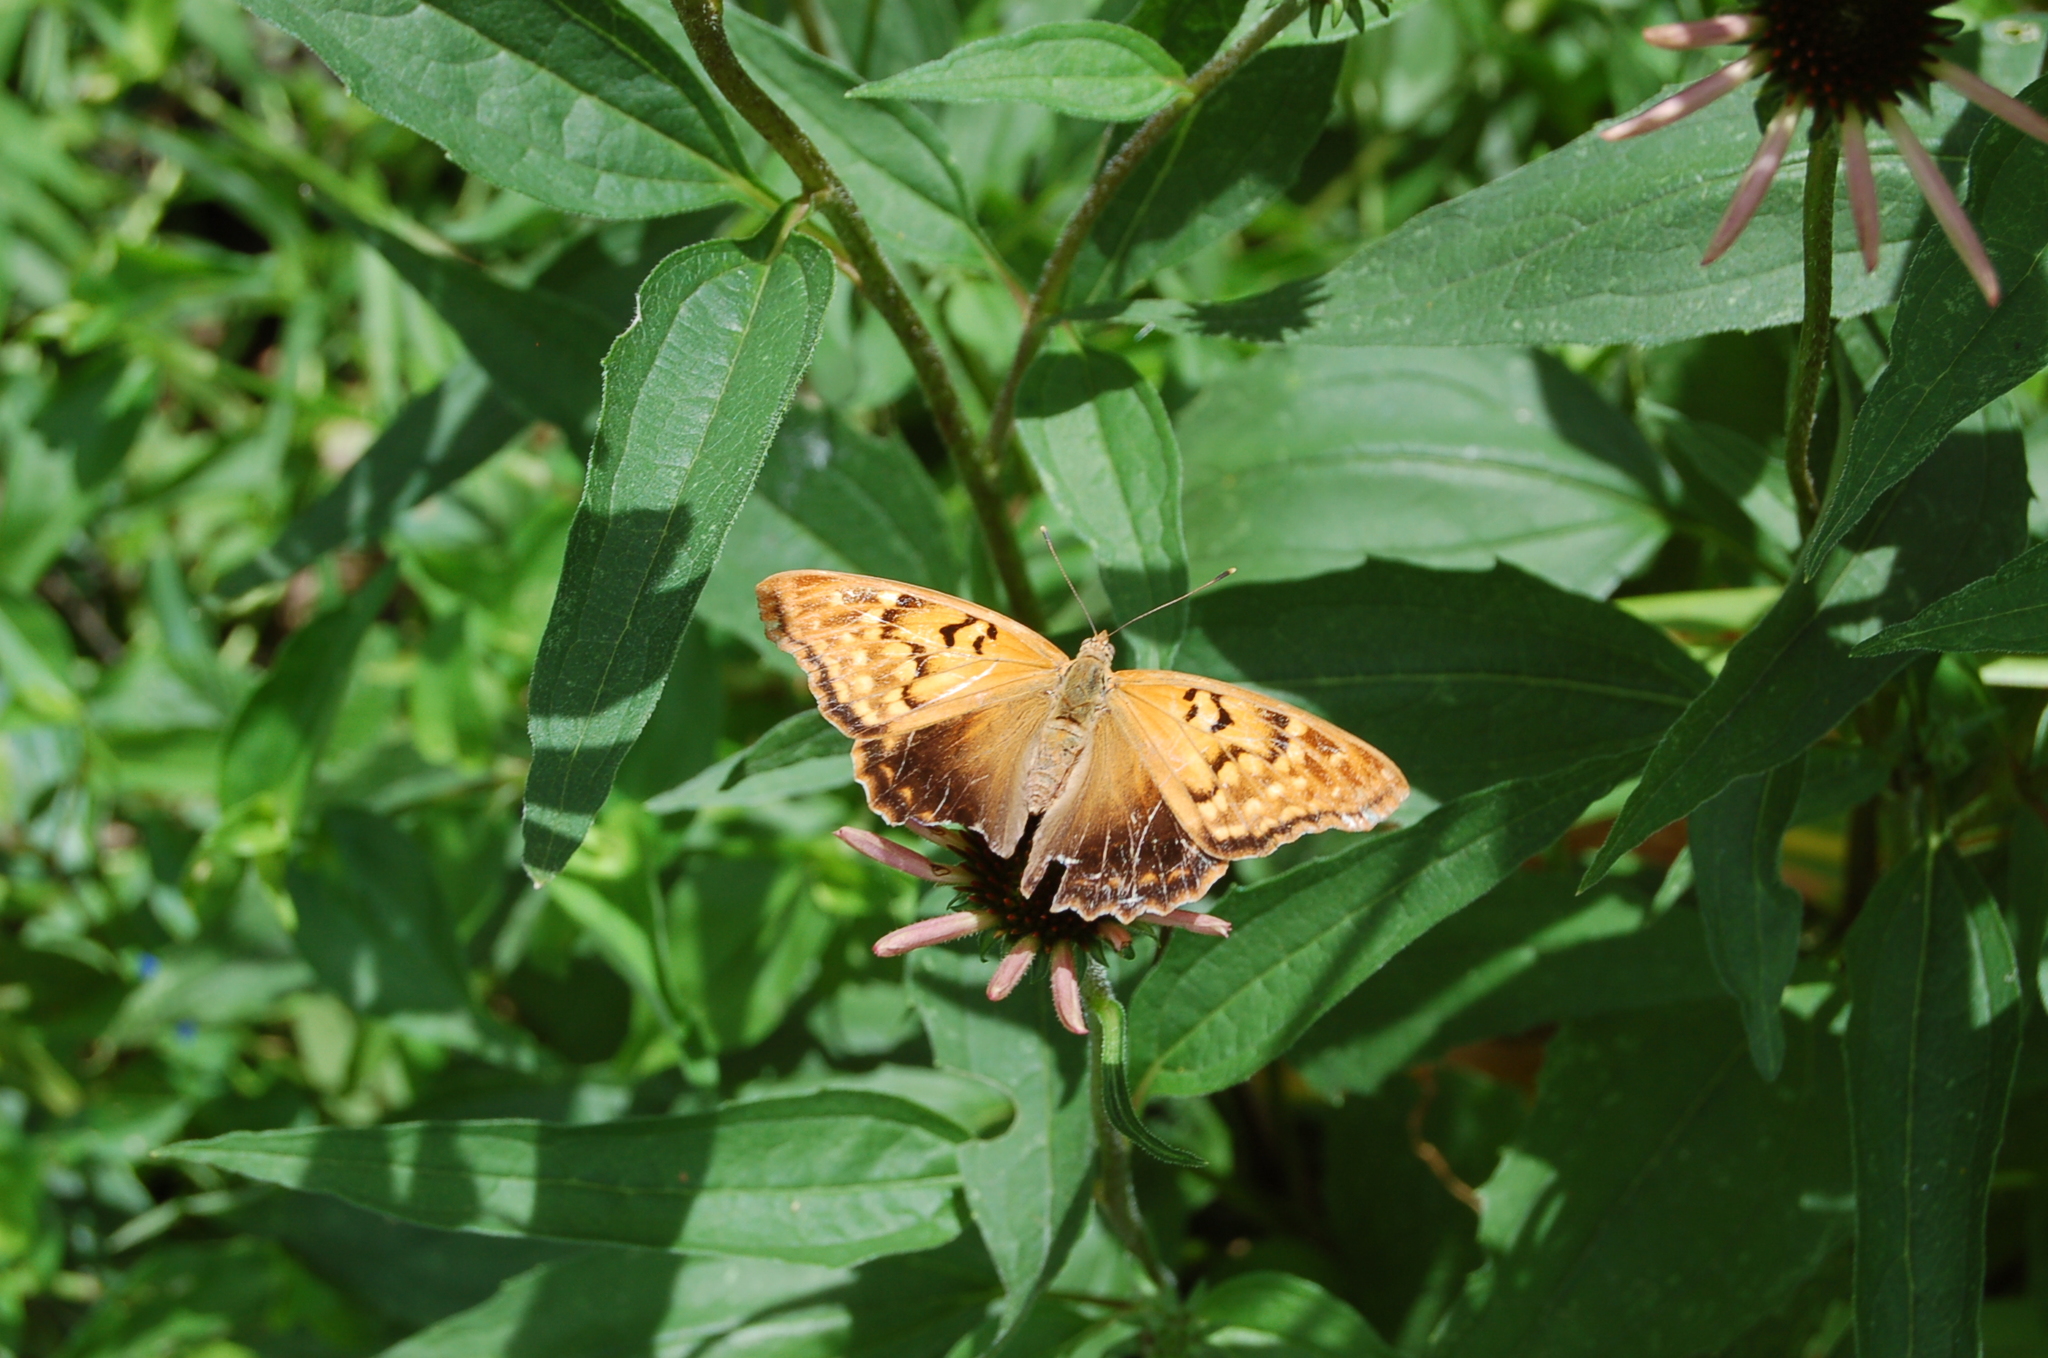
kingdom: Animalia
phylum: Arthropoda
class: Insecta
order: Lepidoptera
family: Nymphalidae
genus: Asterocampa
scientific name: Asterocampa clyton
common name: Tawny emperor
